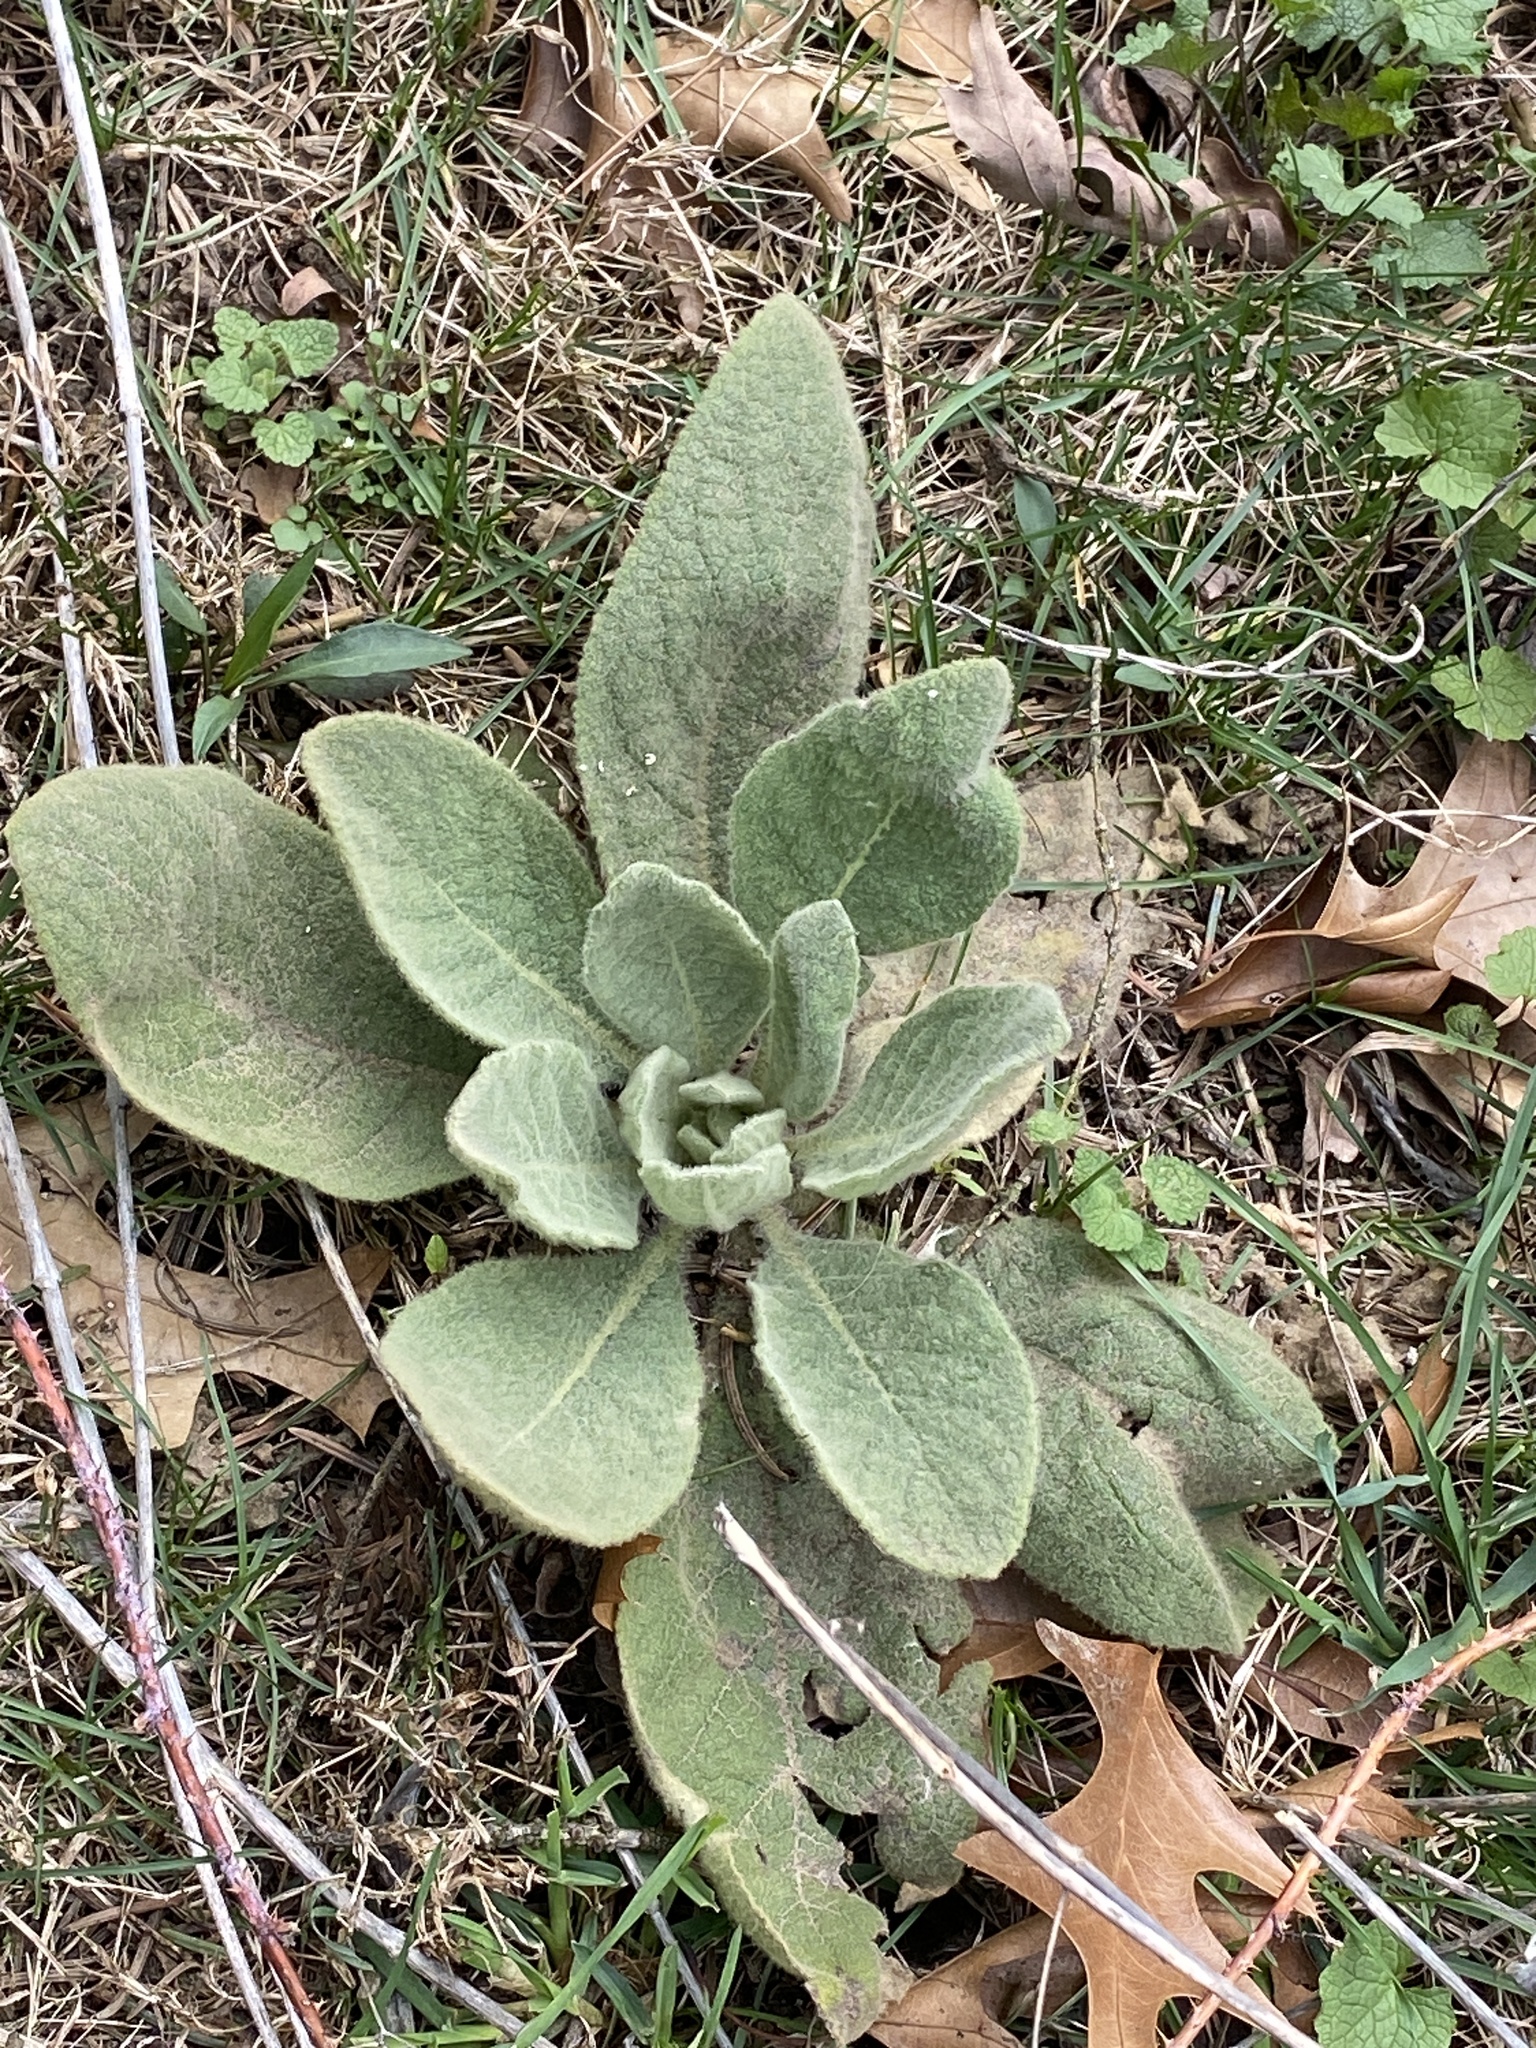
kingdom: Plantae
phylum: Tracheophyta
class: Magnoliopsida
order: Lamiales
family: Scrophulariaceae
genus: Verbascum
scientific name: Verbascum thapsus
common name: Common mullein
